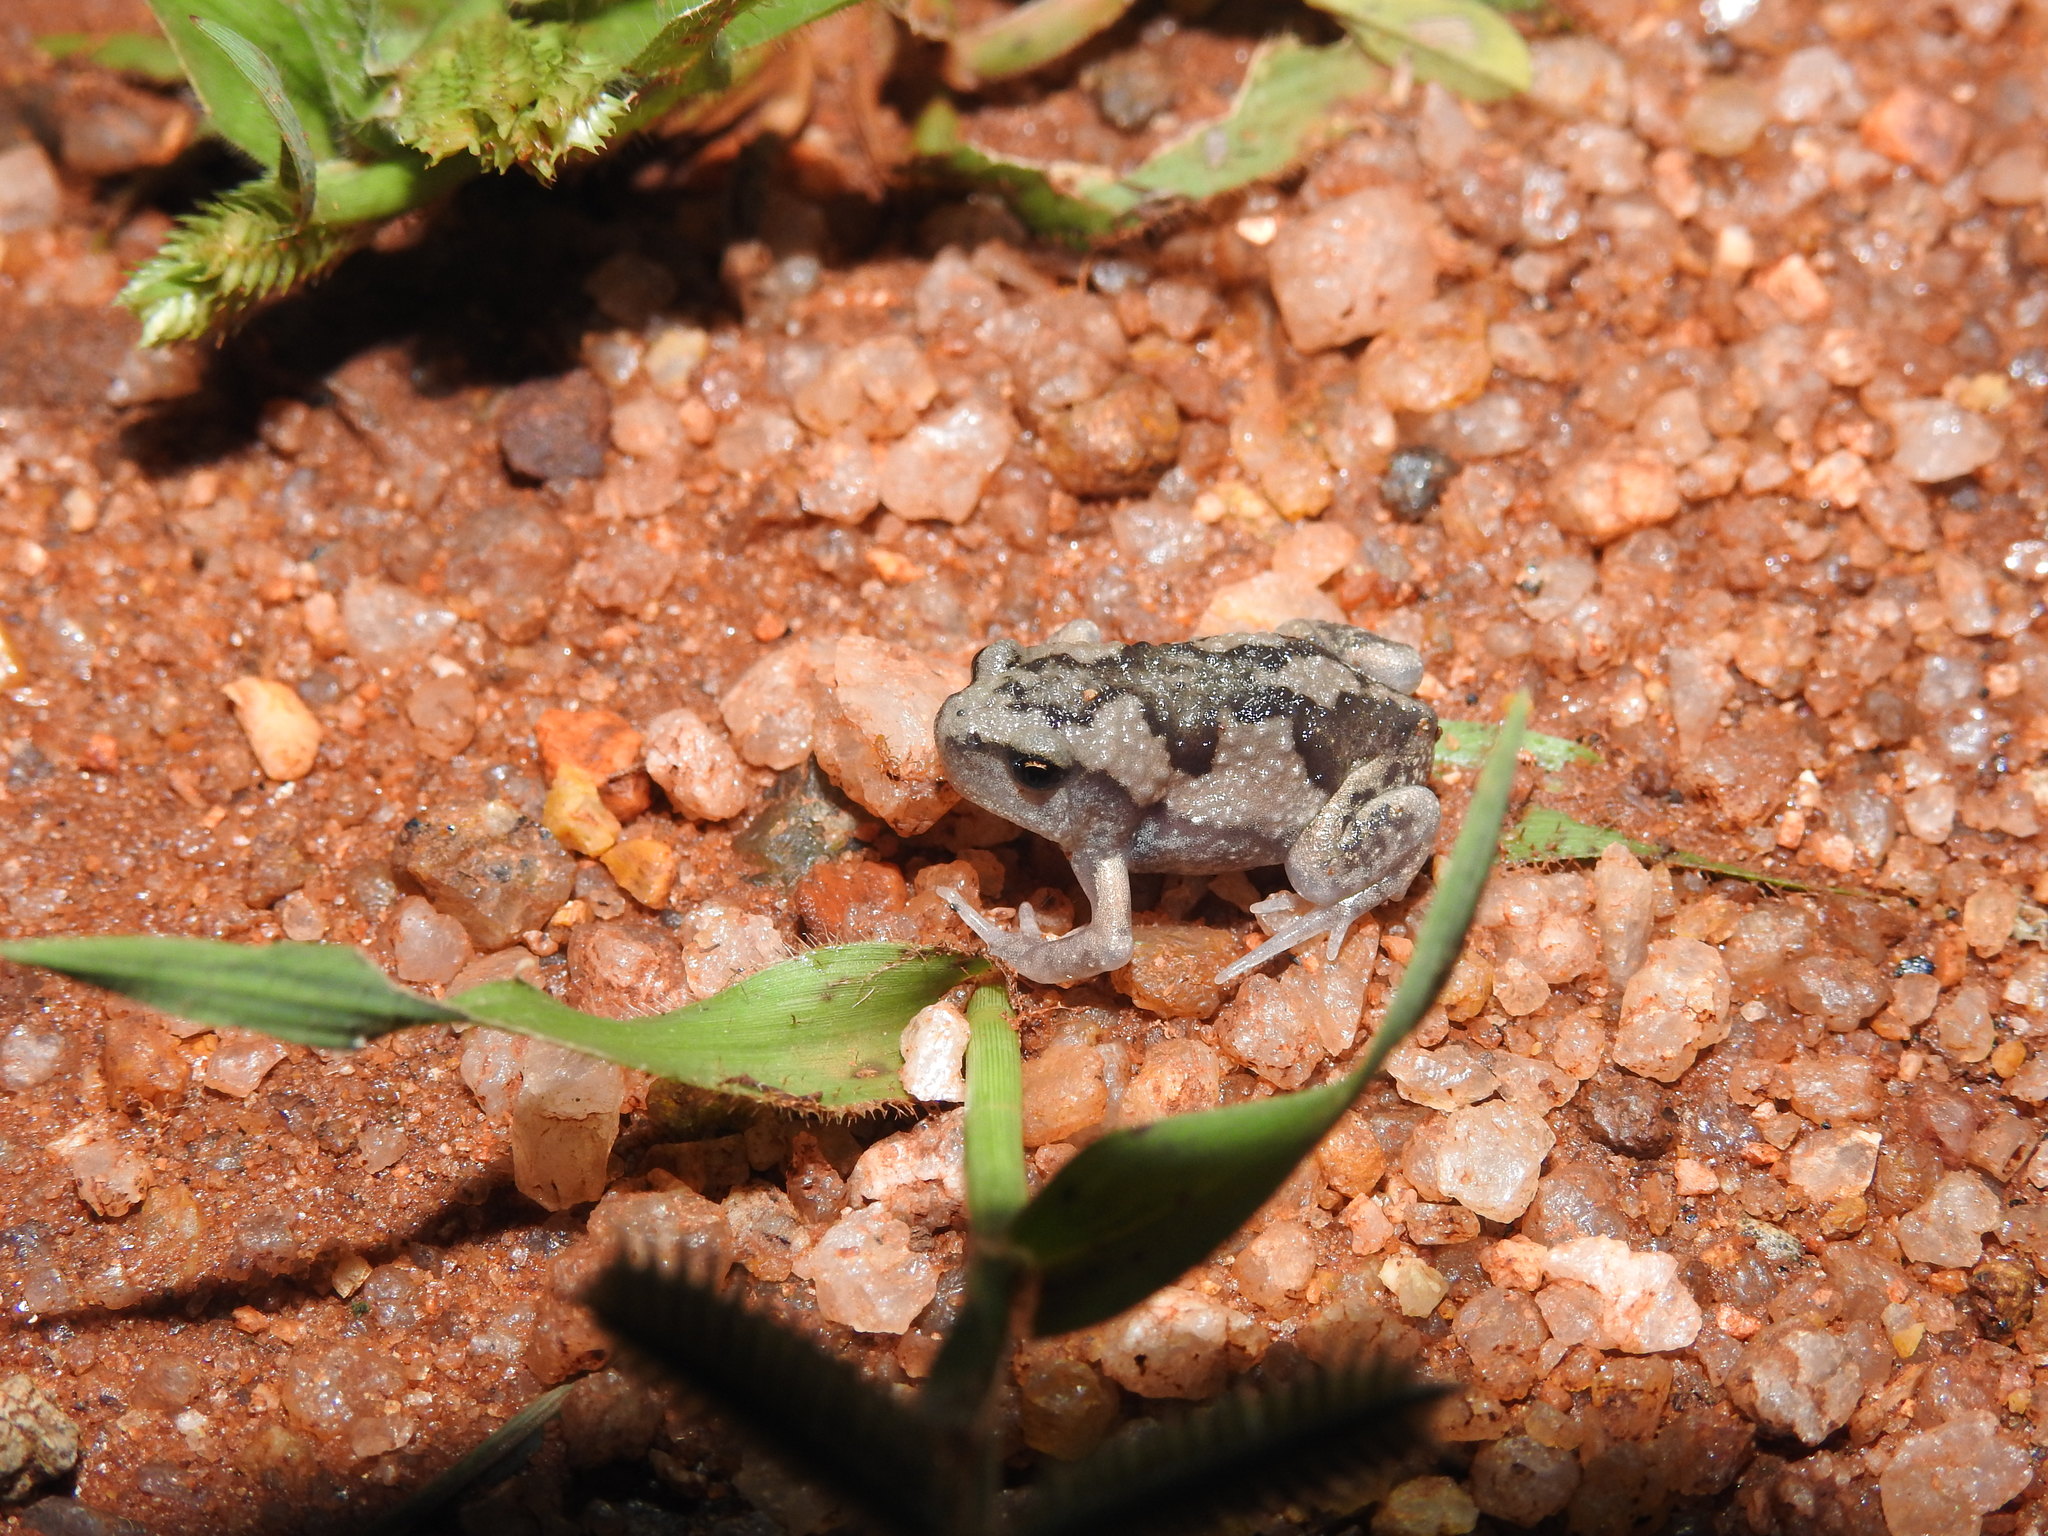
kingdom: Animalia
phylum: Chordata
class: Amphibia
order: Anura
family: Microhylidae
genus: Uperodon
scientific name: Uperodon systoma
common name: Balloon frog
